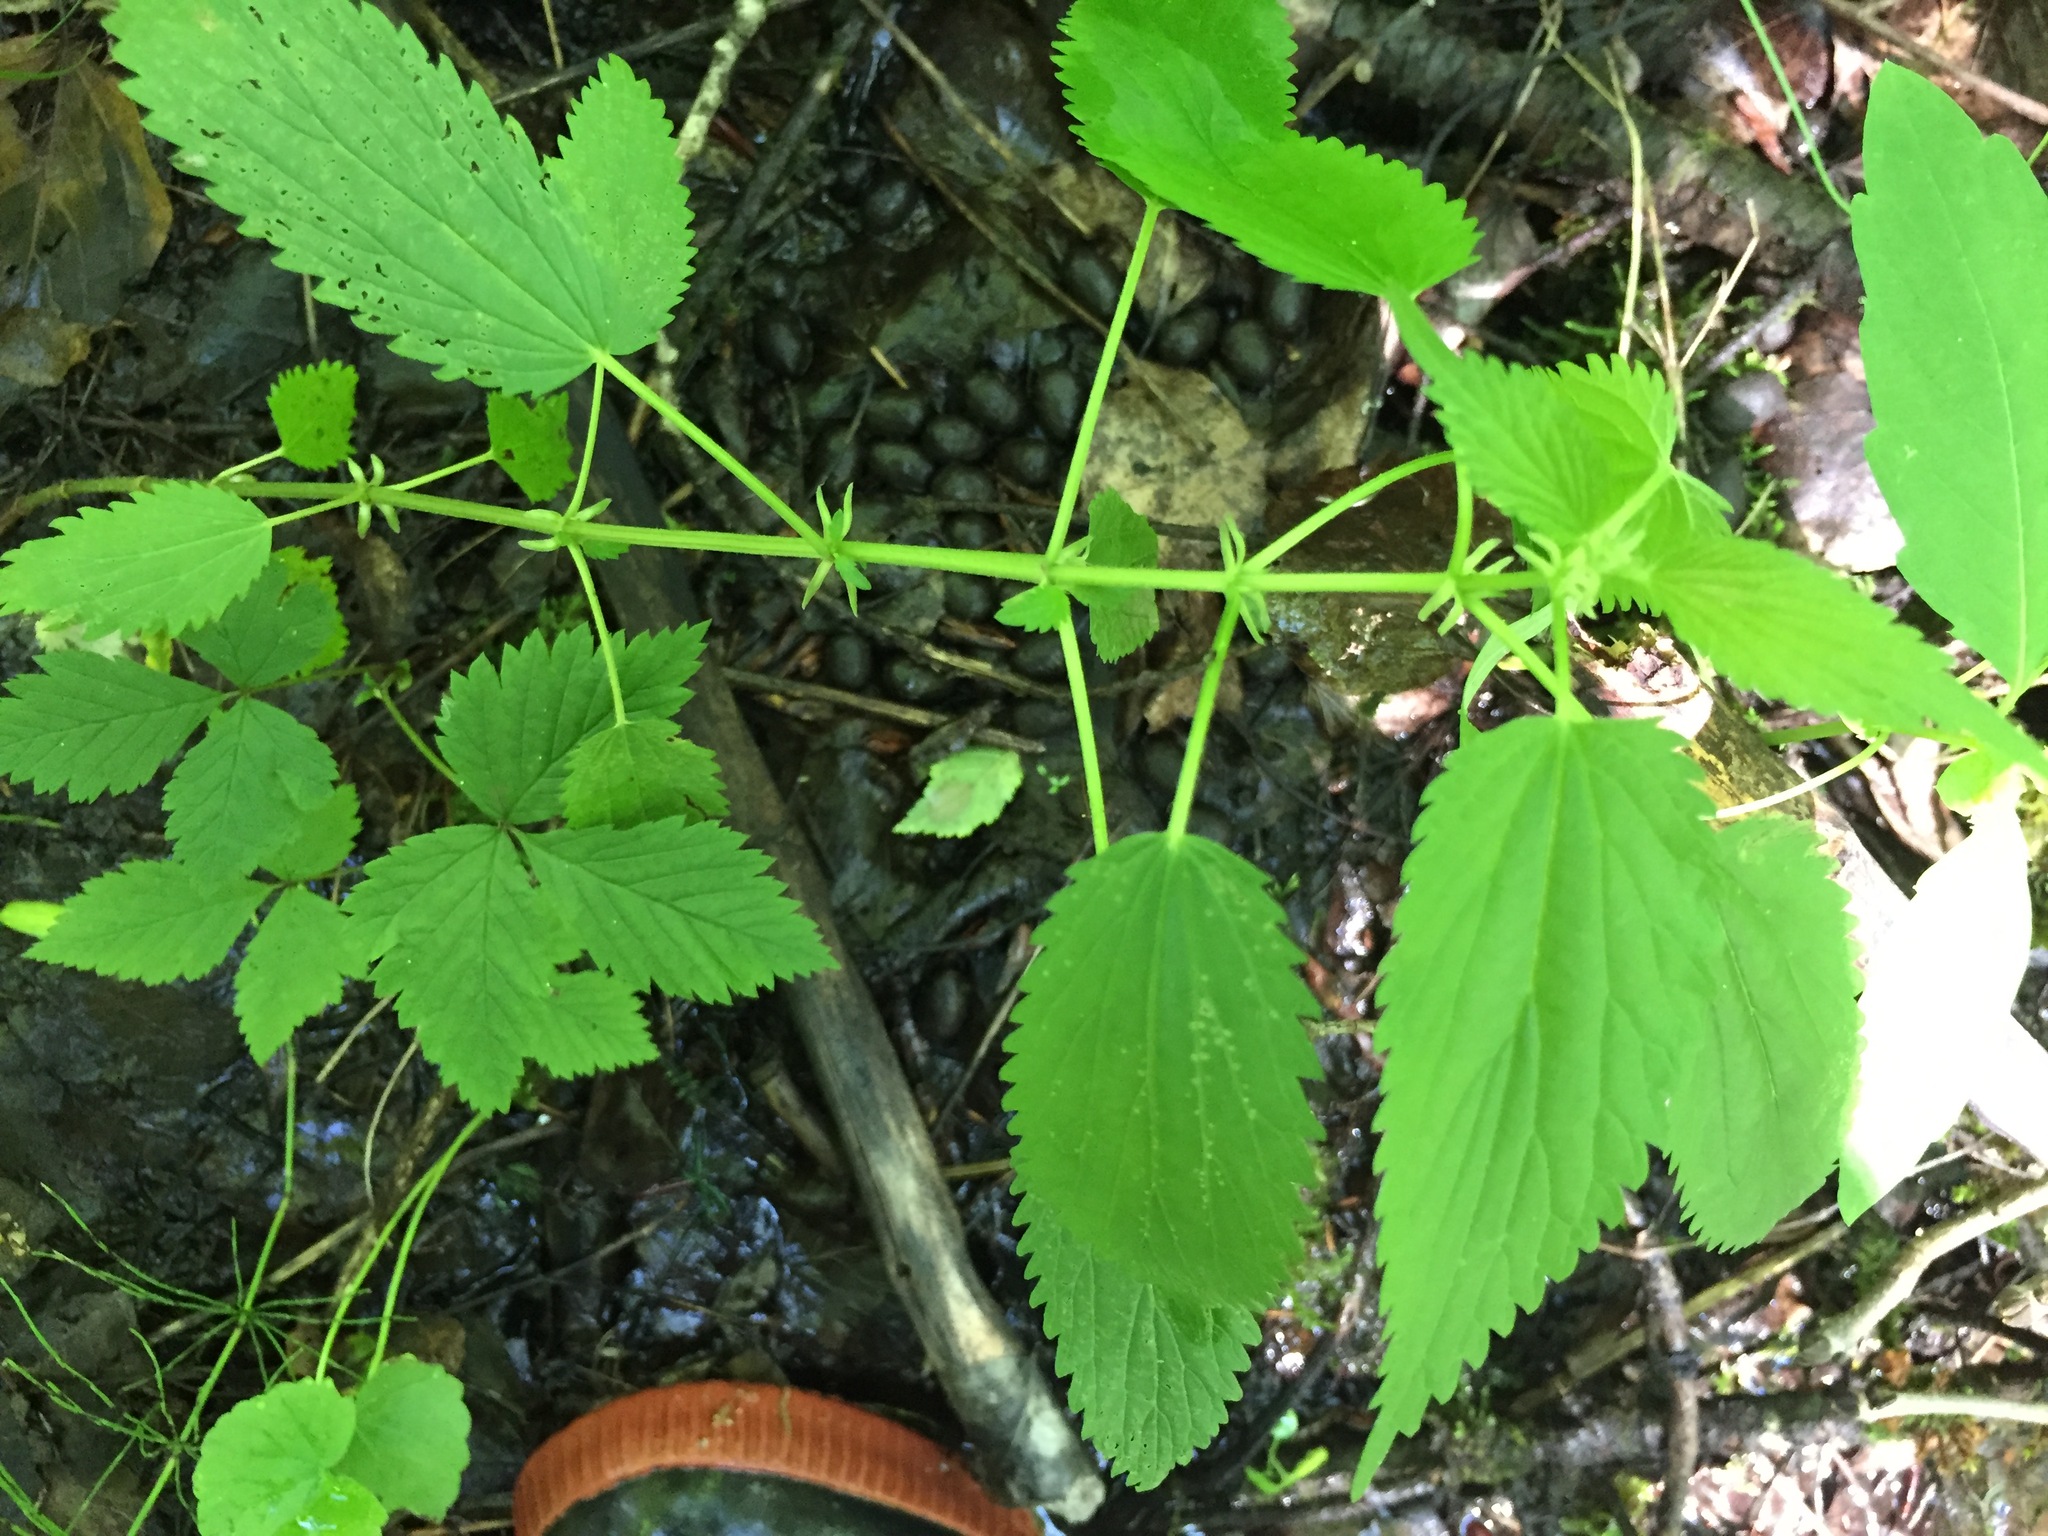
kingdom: Plantae
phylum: Tracheophyta
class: Magnoliopsida
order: Rosales
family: Urticaceae
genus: Urtica
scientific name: Urtica gracilis
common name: Slender stinging nettle
